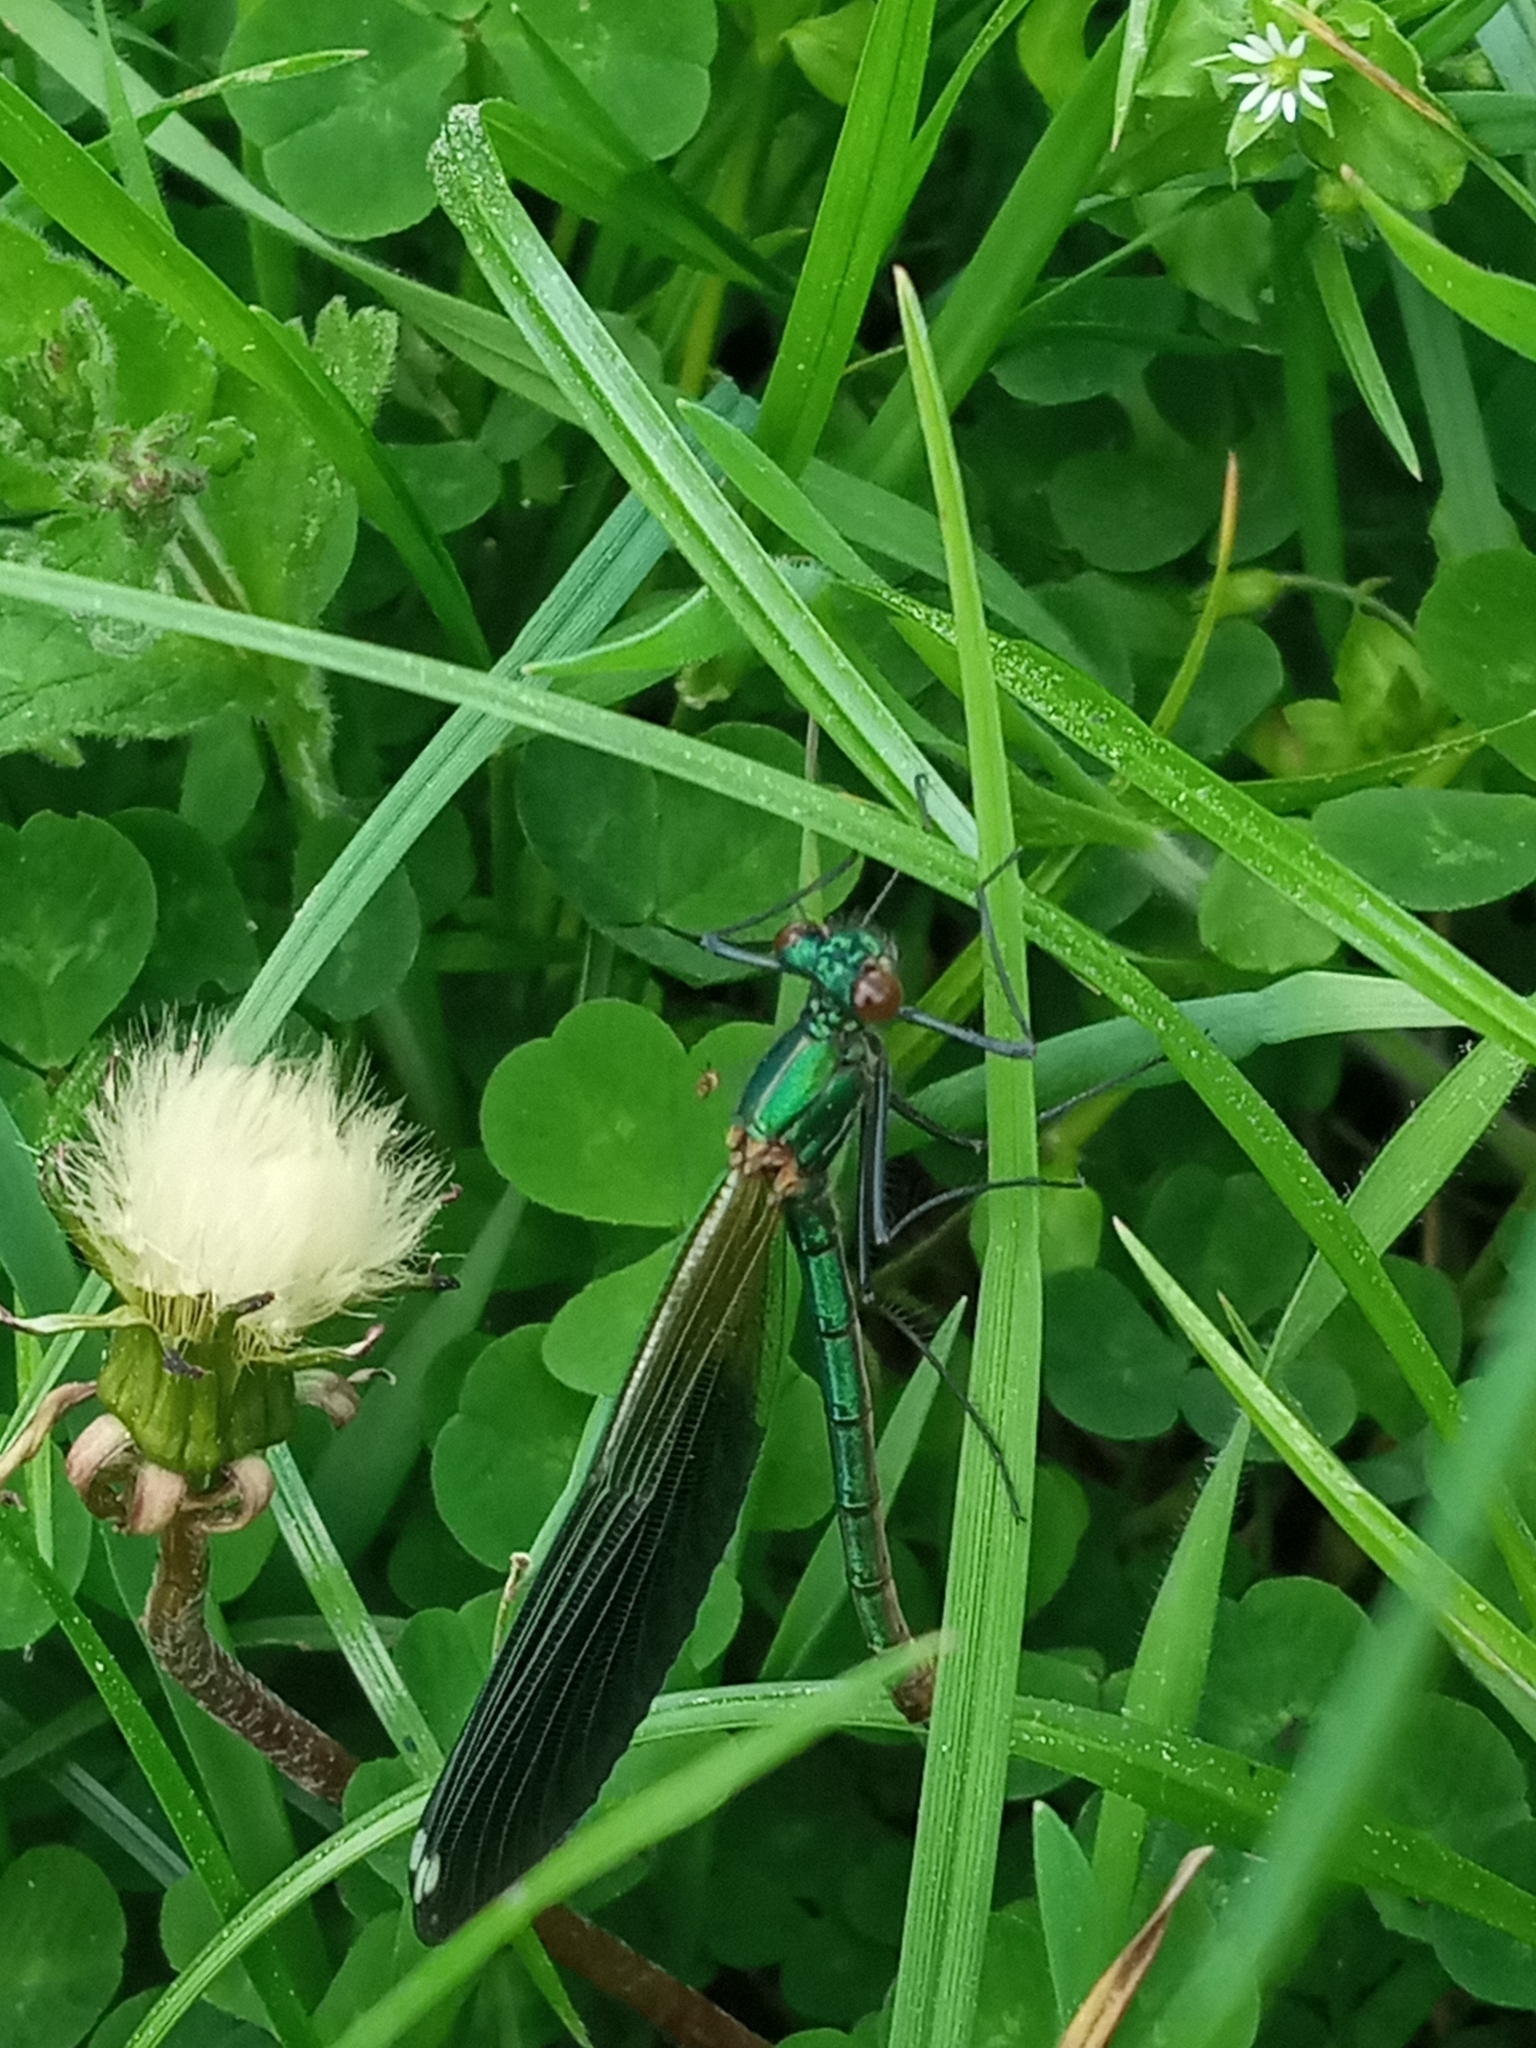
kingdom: Animalia
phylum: Arthropoda
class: Insecta
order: Odonata
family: Calopterygidae
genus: Calopteryx
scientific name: Calopteryx virgo
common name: Beautiful demoiselle
